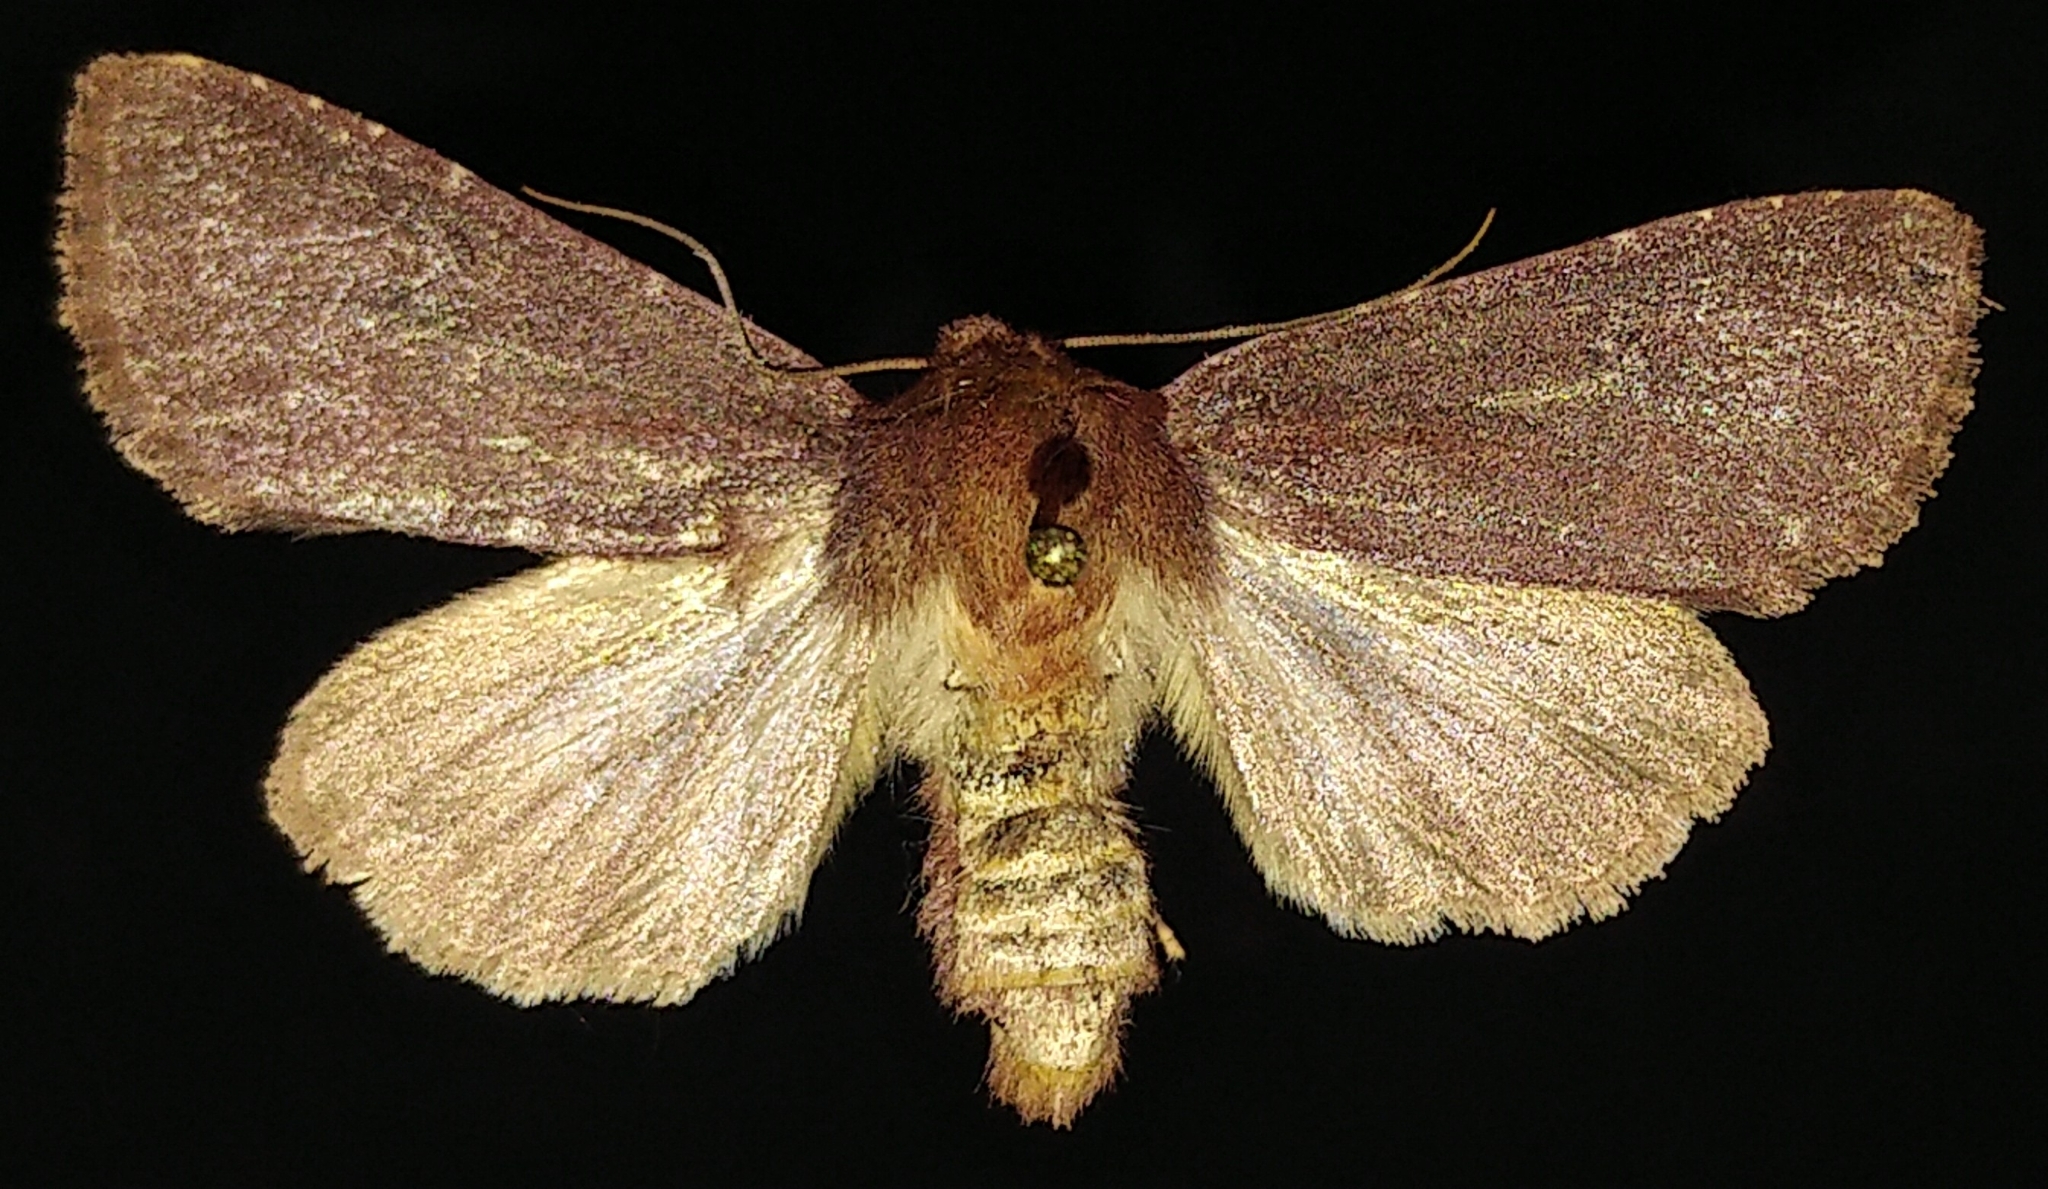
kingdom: Animalia
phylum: Arthropoda
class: Insecta
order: Lepidoptera
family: Noctuidae
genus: Sideridis
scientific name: Sideridis maryx
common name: Maroonwing moth
